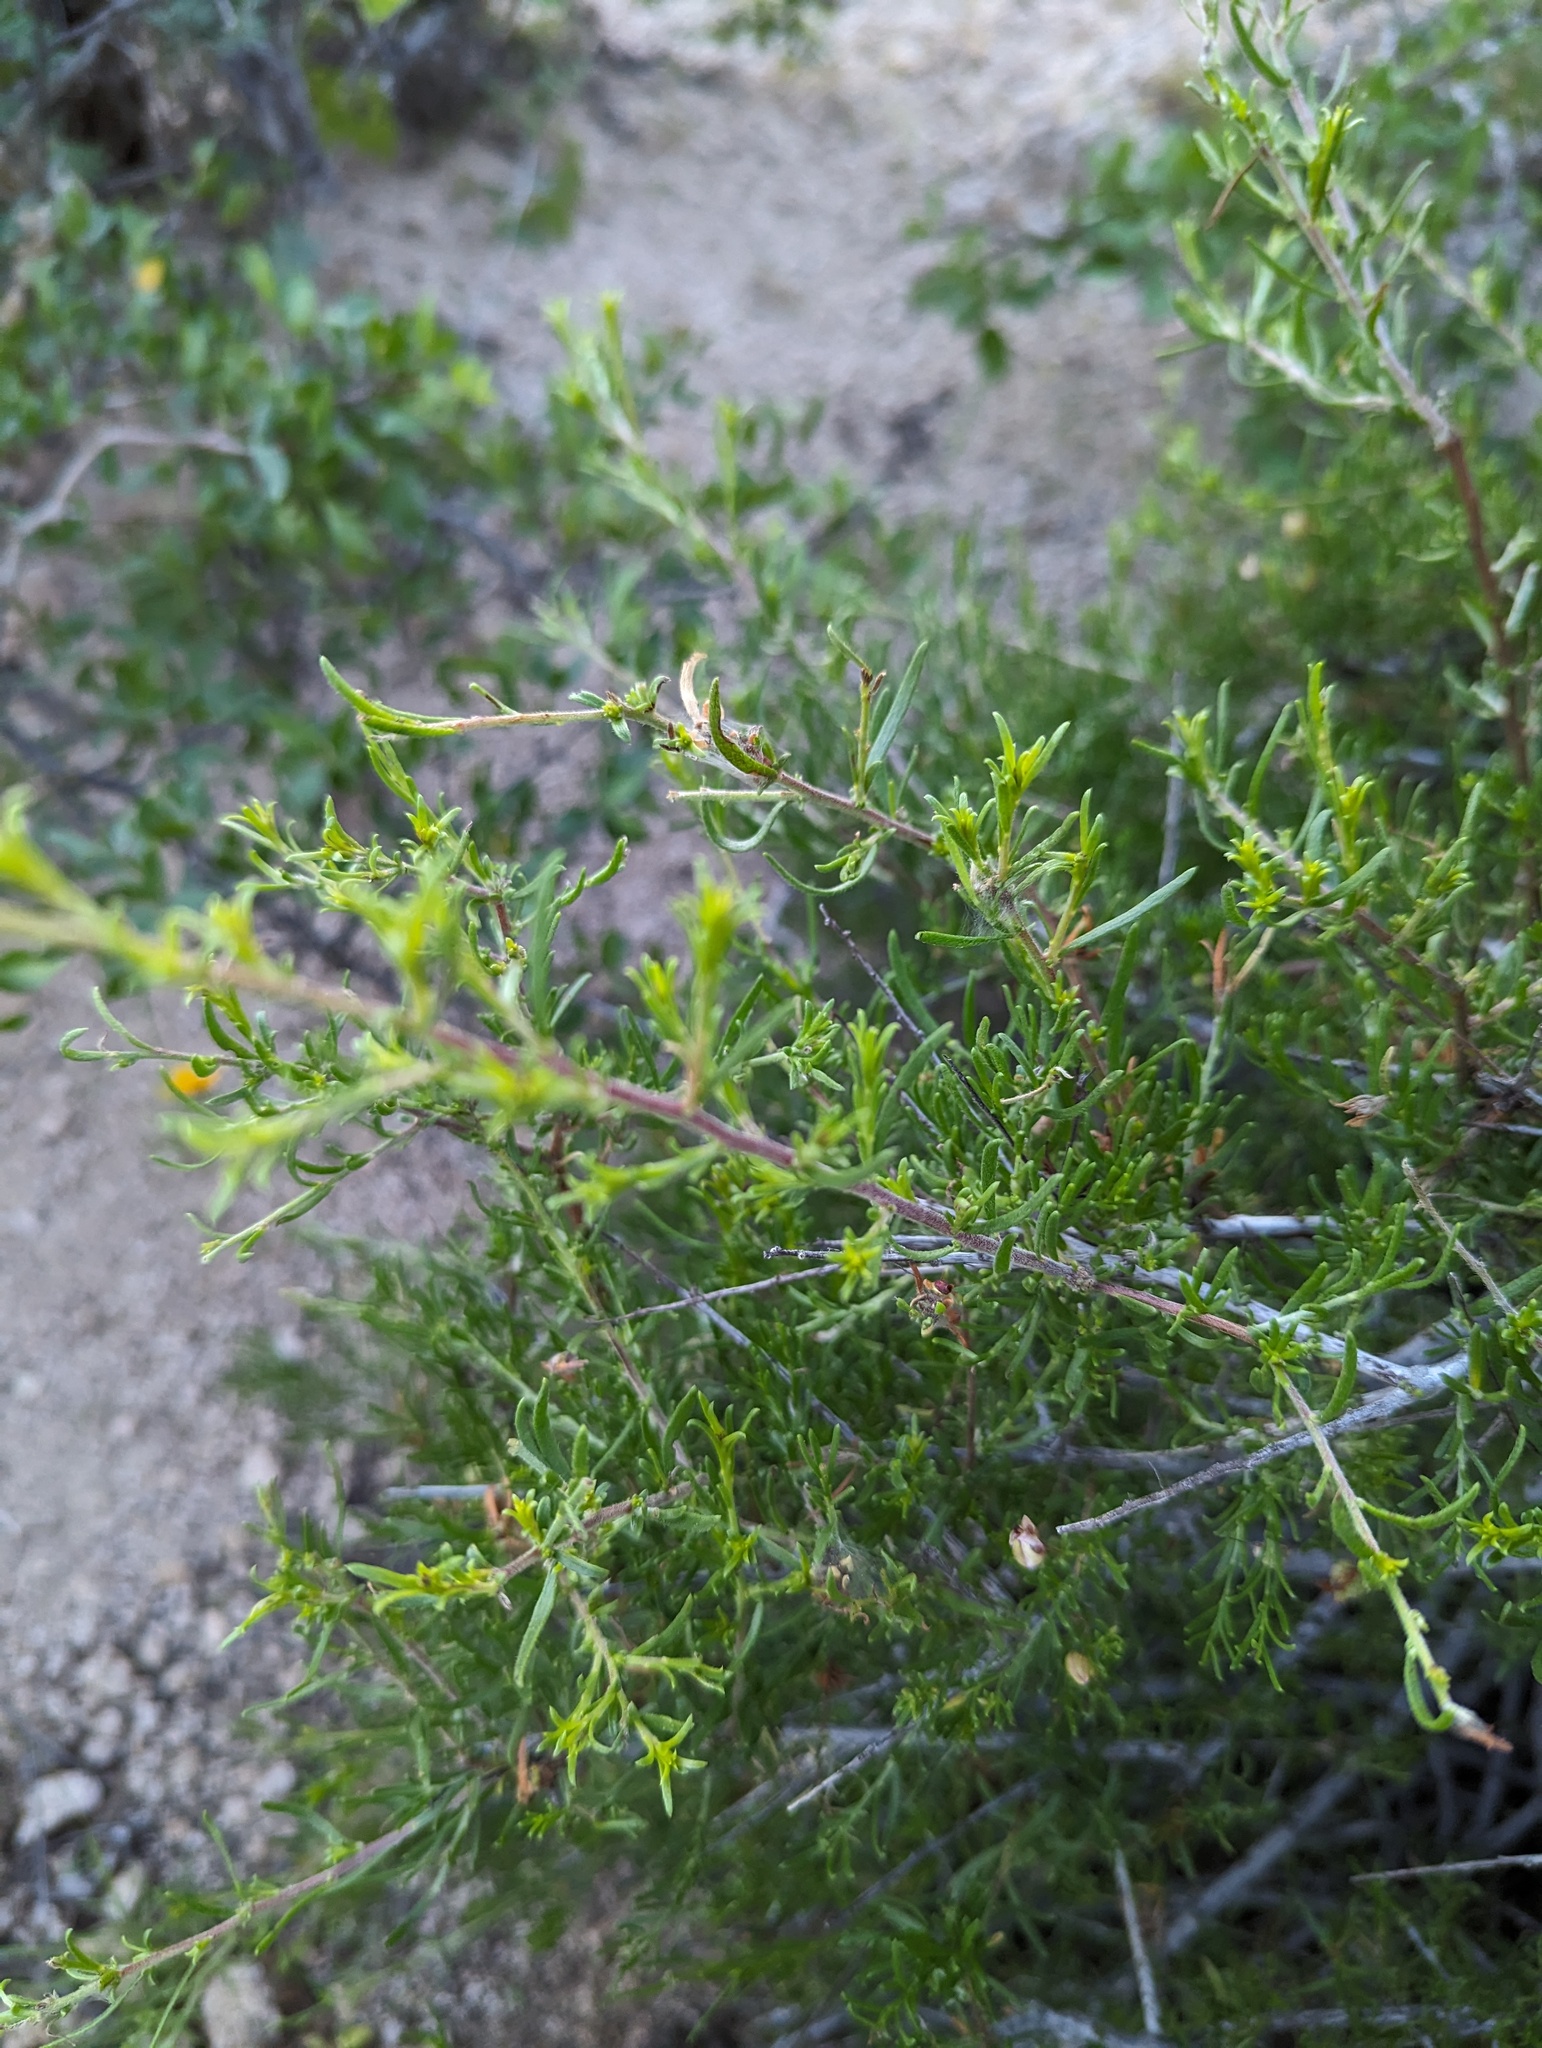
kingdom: Plantae
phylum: Tracheophyta
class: Magnoliopsida
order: Zygophyllales
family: Krameriaceae
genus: Krameria
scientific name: Krameria erecta
